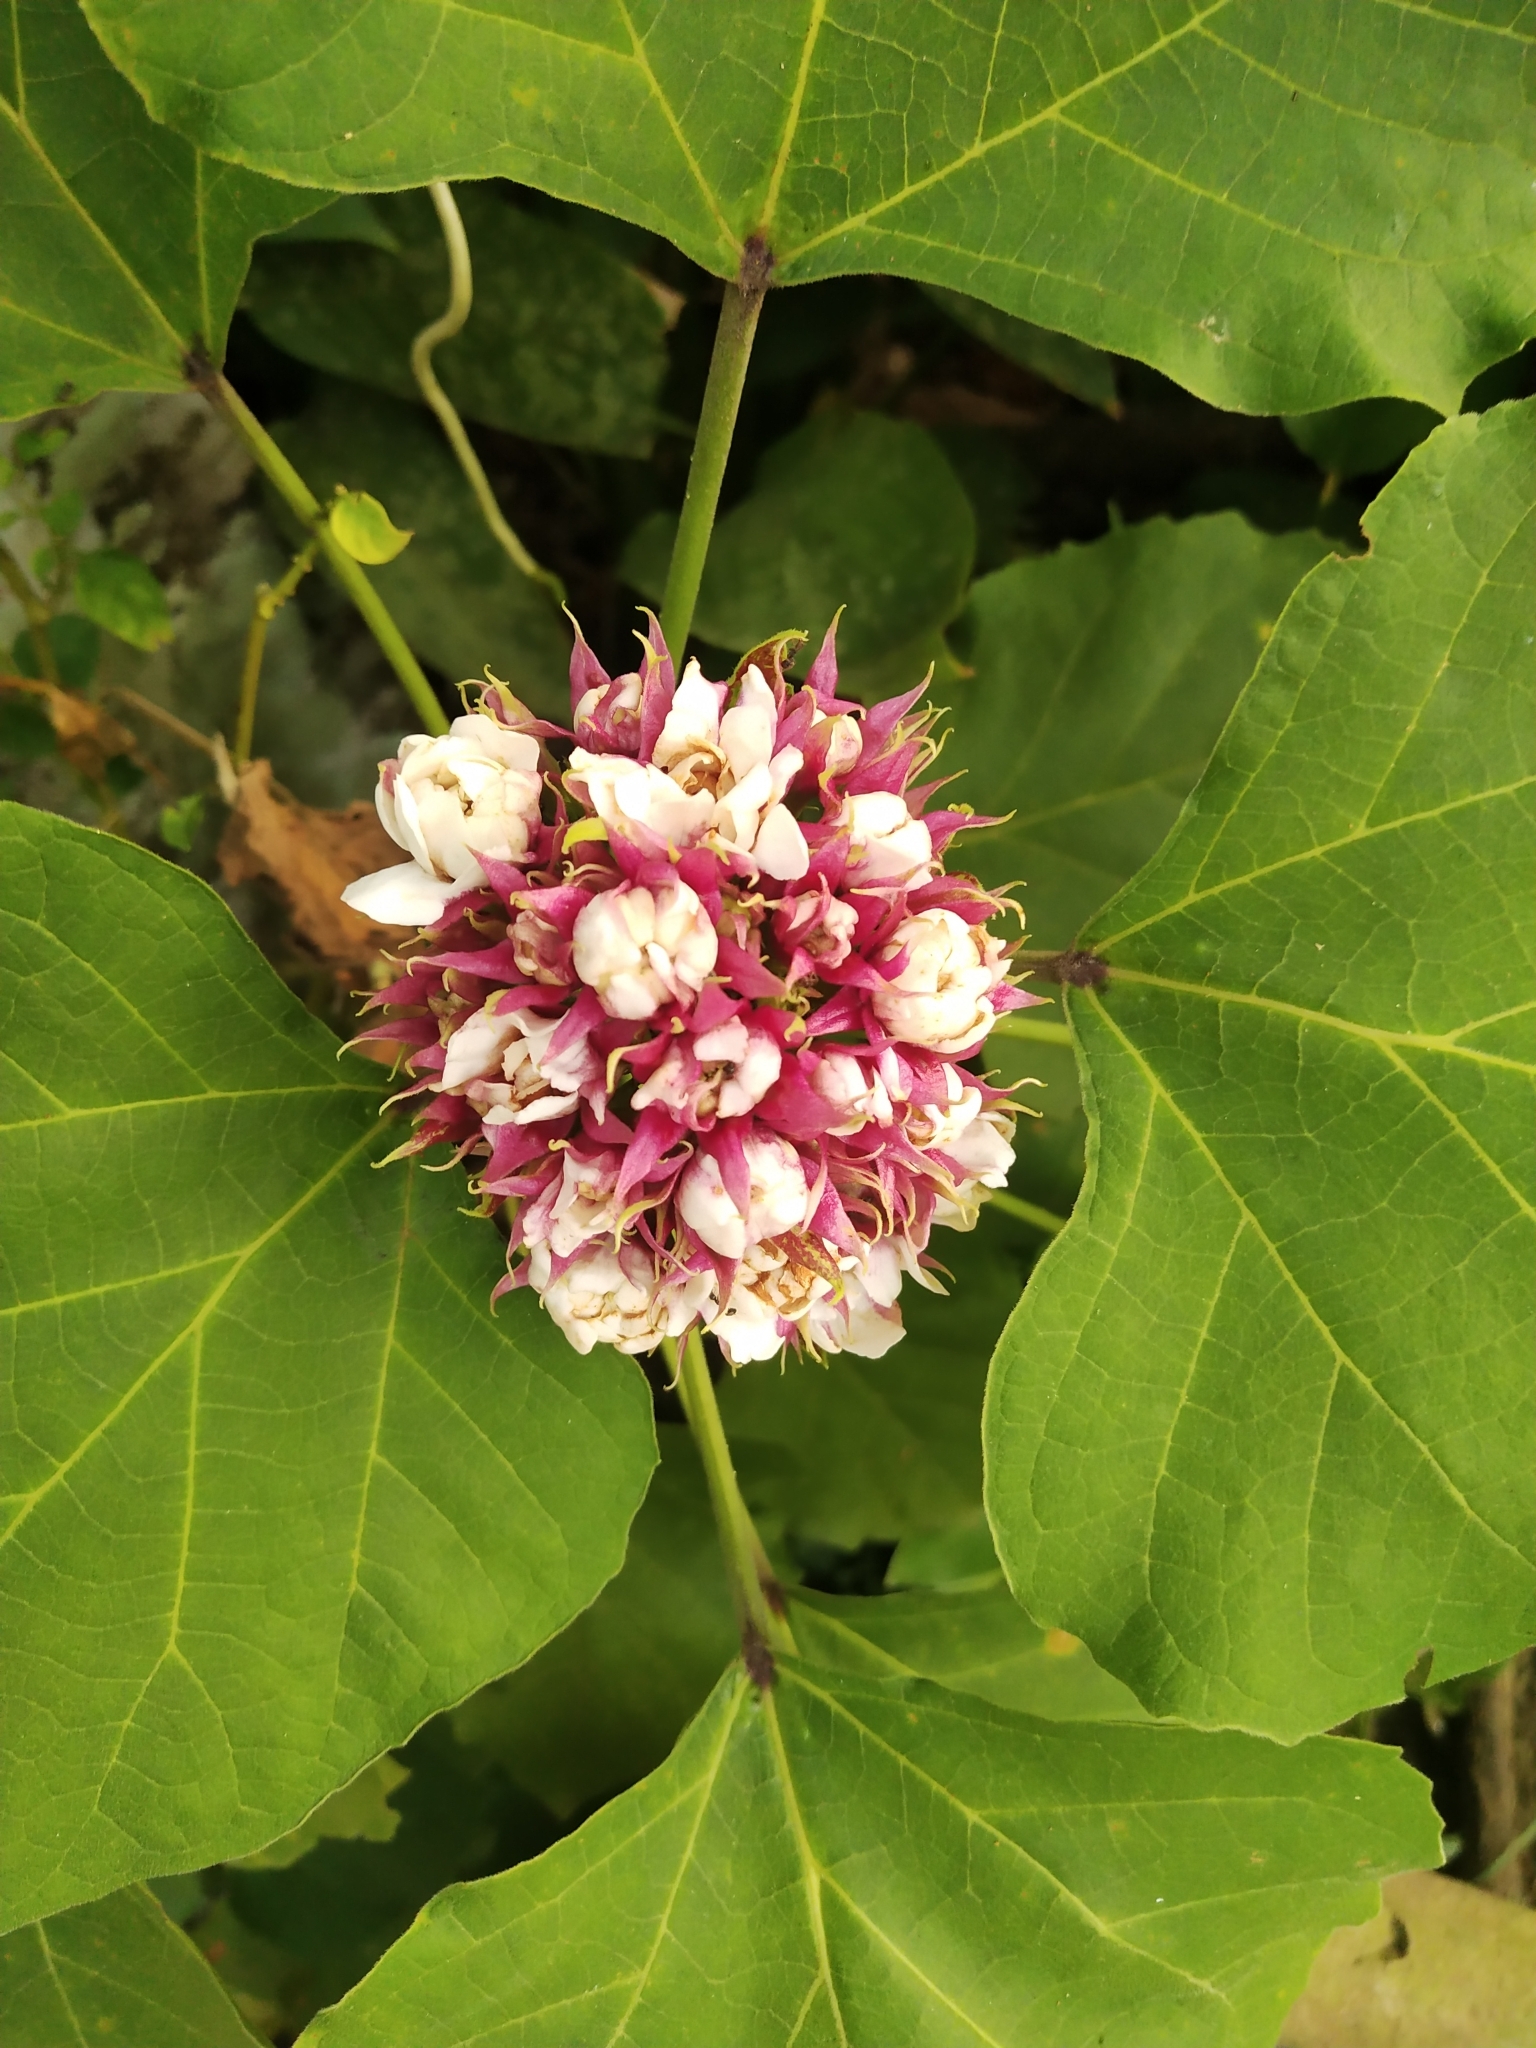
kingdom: Plantae
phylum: Tracheophyta
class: Magnoliopsida
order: Lamiales
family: Lamiaceae
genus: Clerodendrum
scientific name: Clerodendrum chinense
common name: Stickbush
